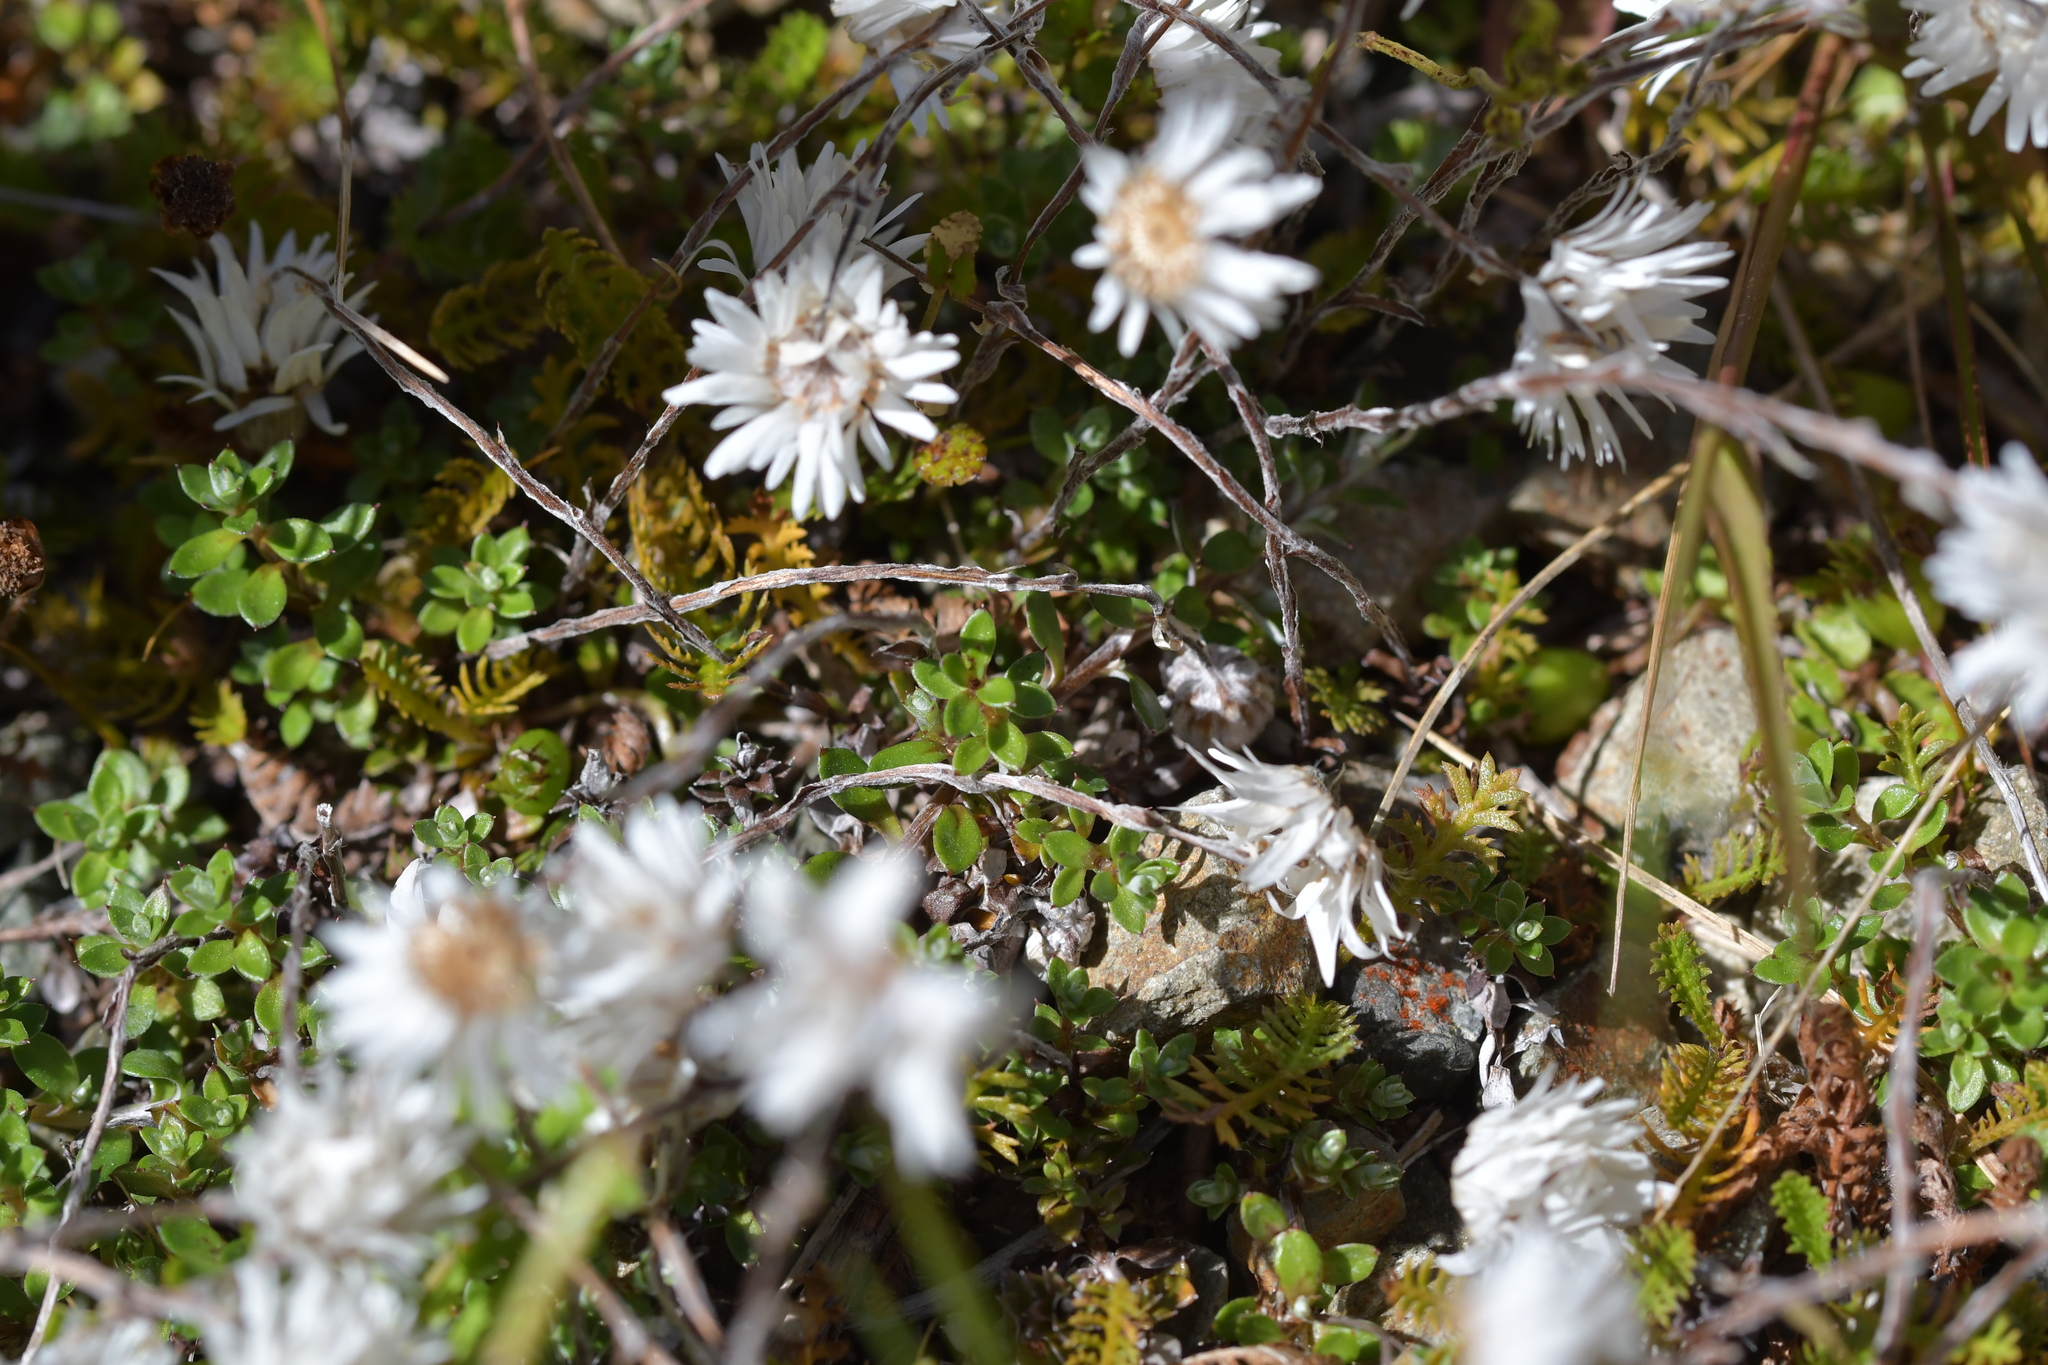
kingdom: Plantae
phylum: Tracheophyta
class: Magnoliopsida
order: Asterales
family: Asteraceae
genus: Anaphalioides
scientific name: Anaphalioides bellidioides
